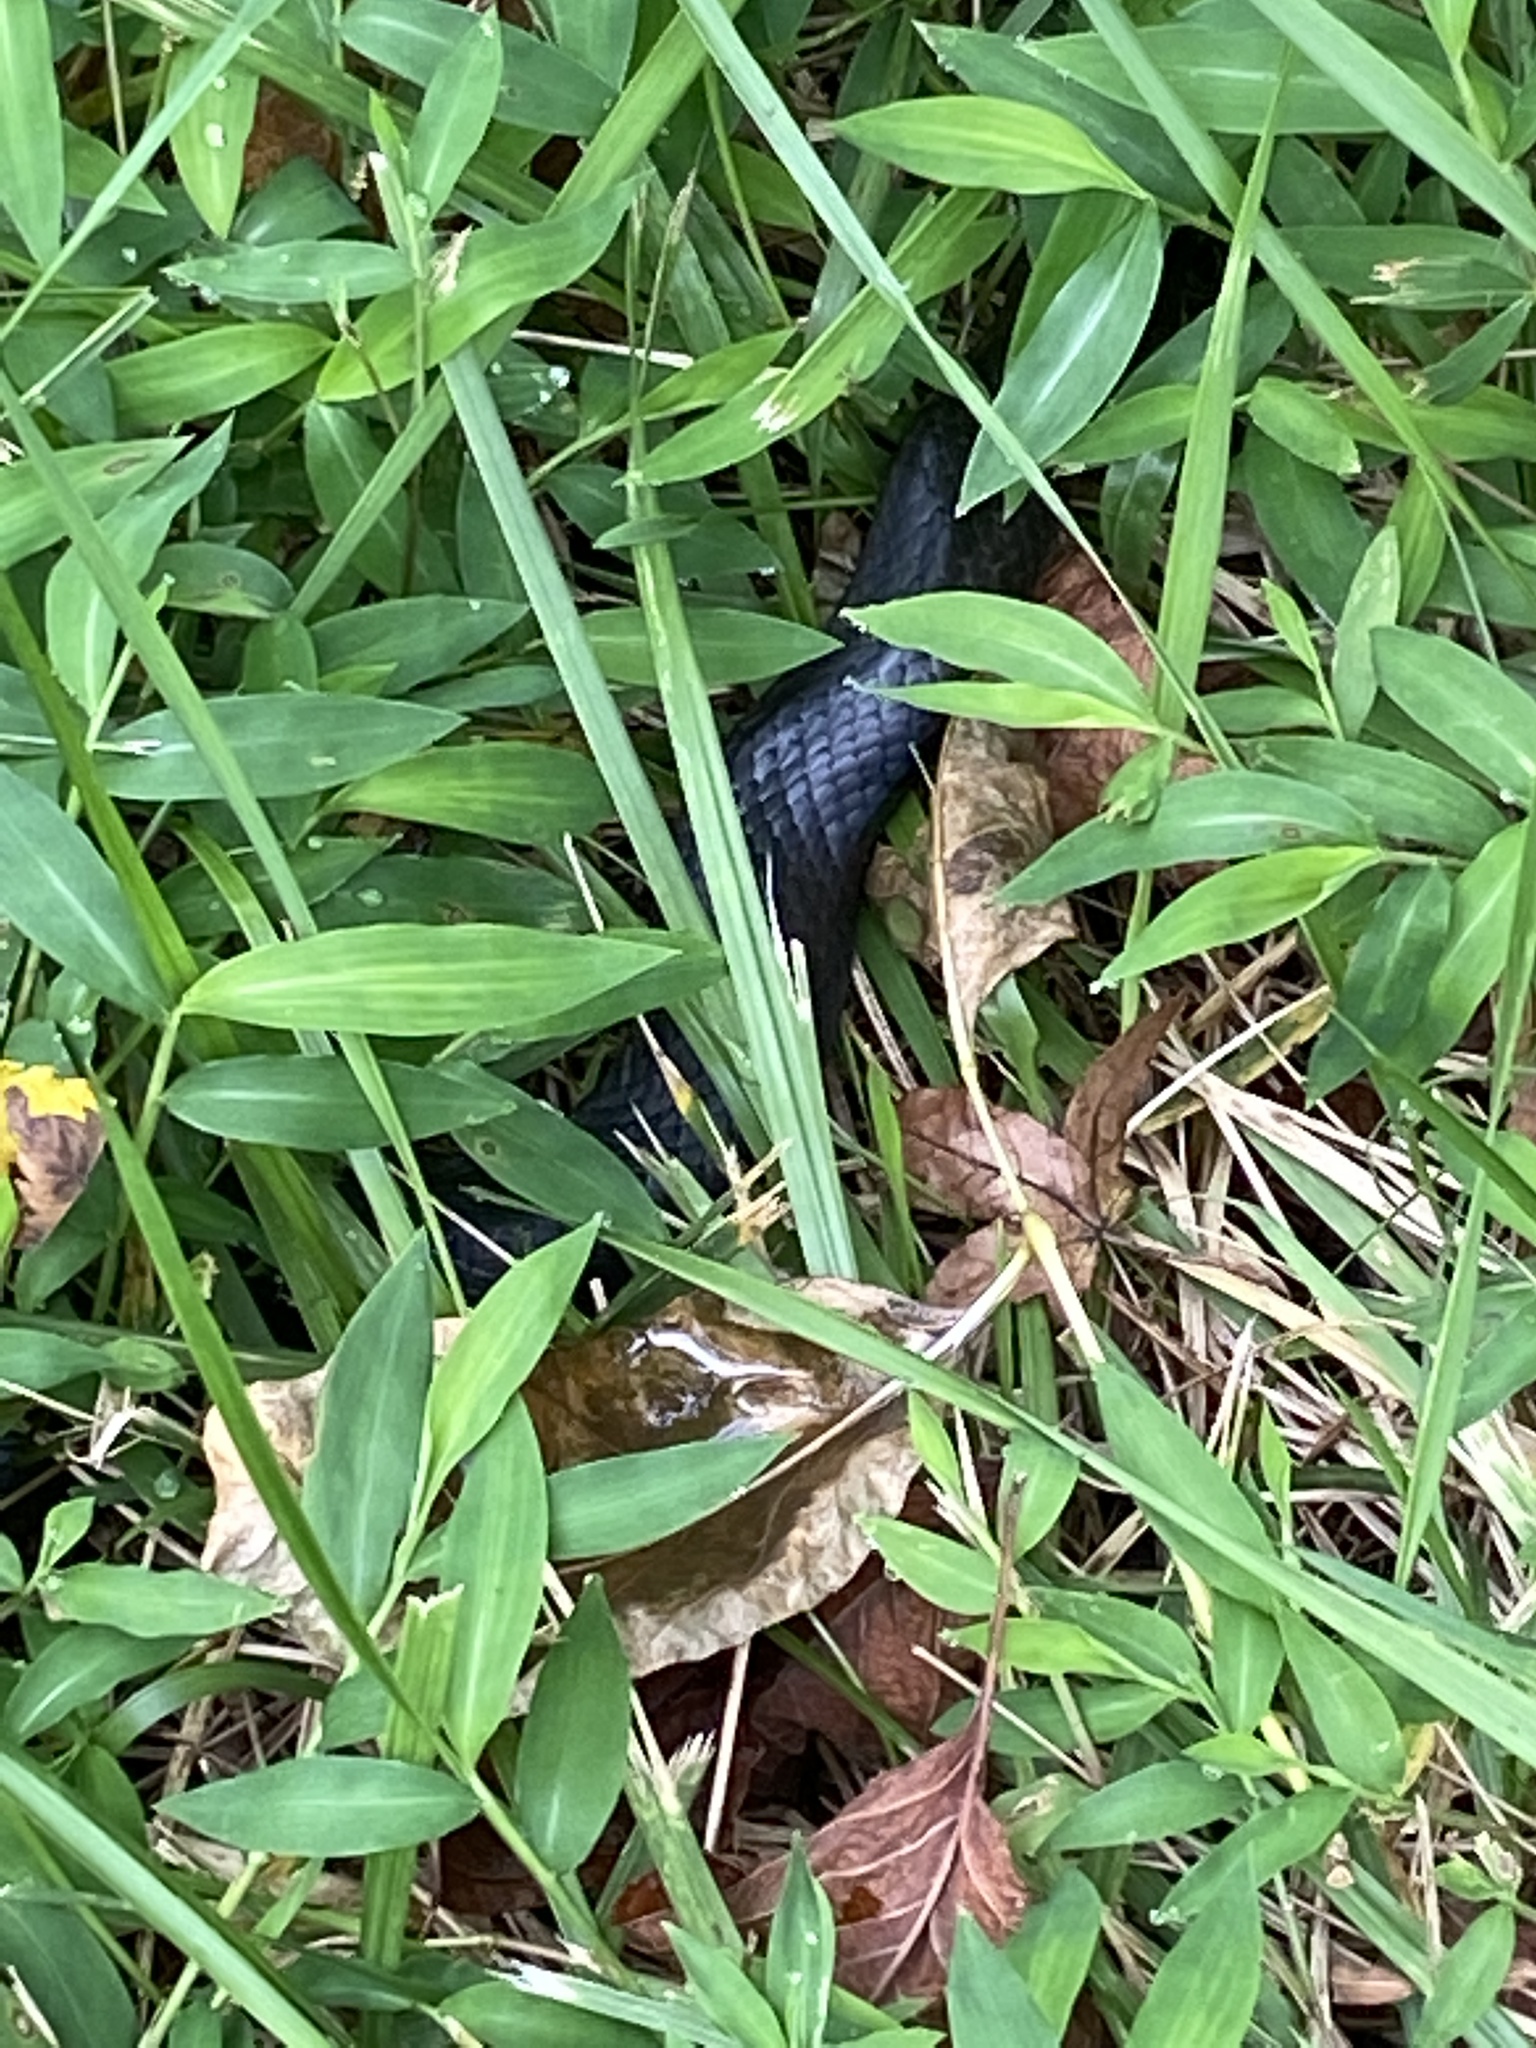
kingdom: Animalia
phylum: Chordata
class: Squamata
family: Colubridae
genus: Pantherophis
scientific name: Pantherophis
